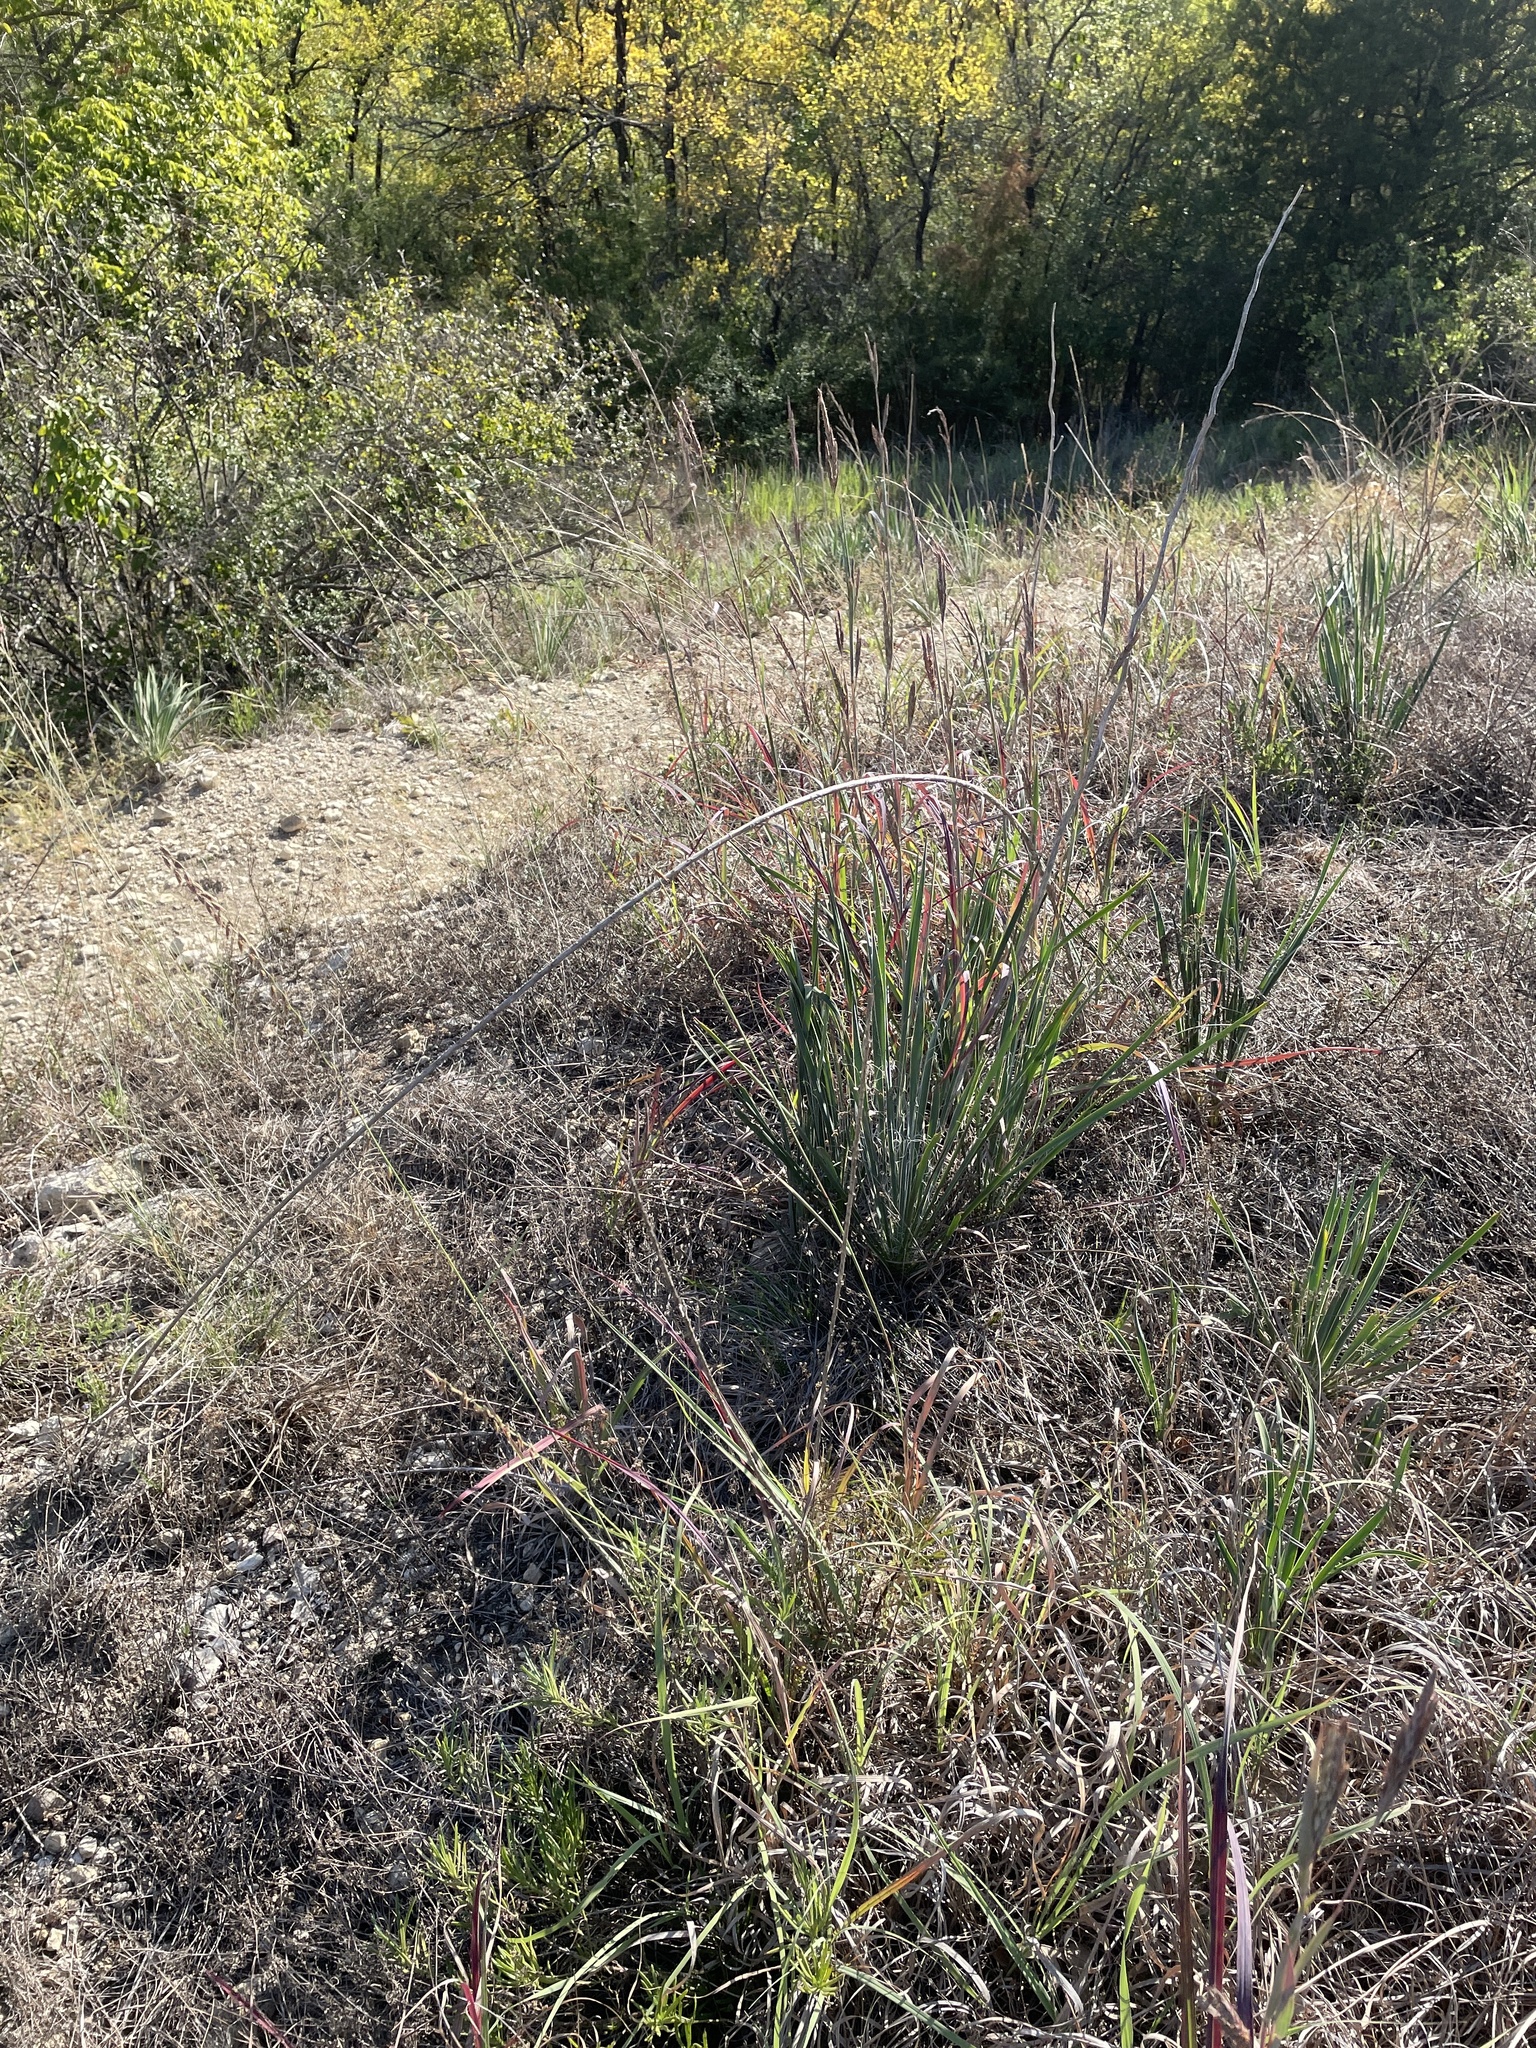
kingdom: Plantae
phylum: Tracheophyta
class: Liliopsida
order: Poales
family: Poaceae
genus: Bouteloua
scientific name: Bouteloua curtipendula
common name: Side-oats grama
